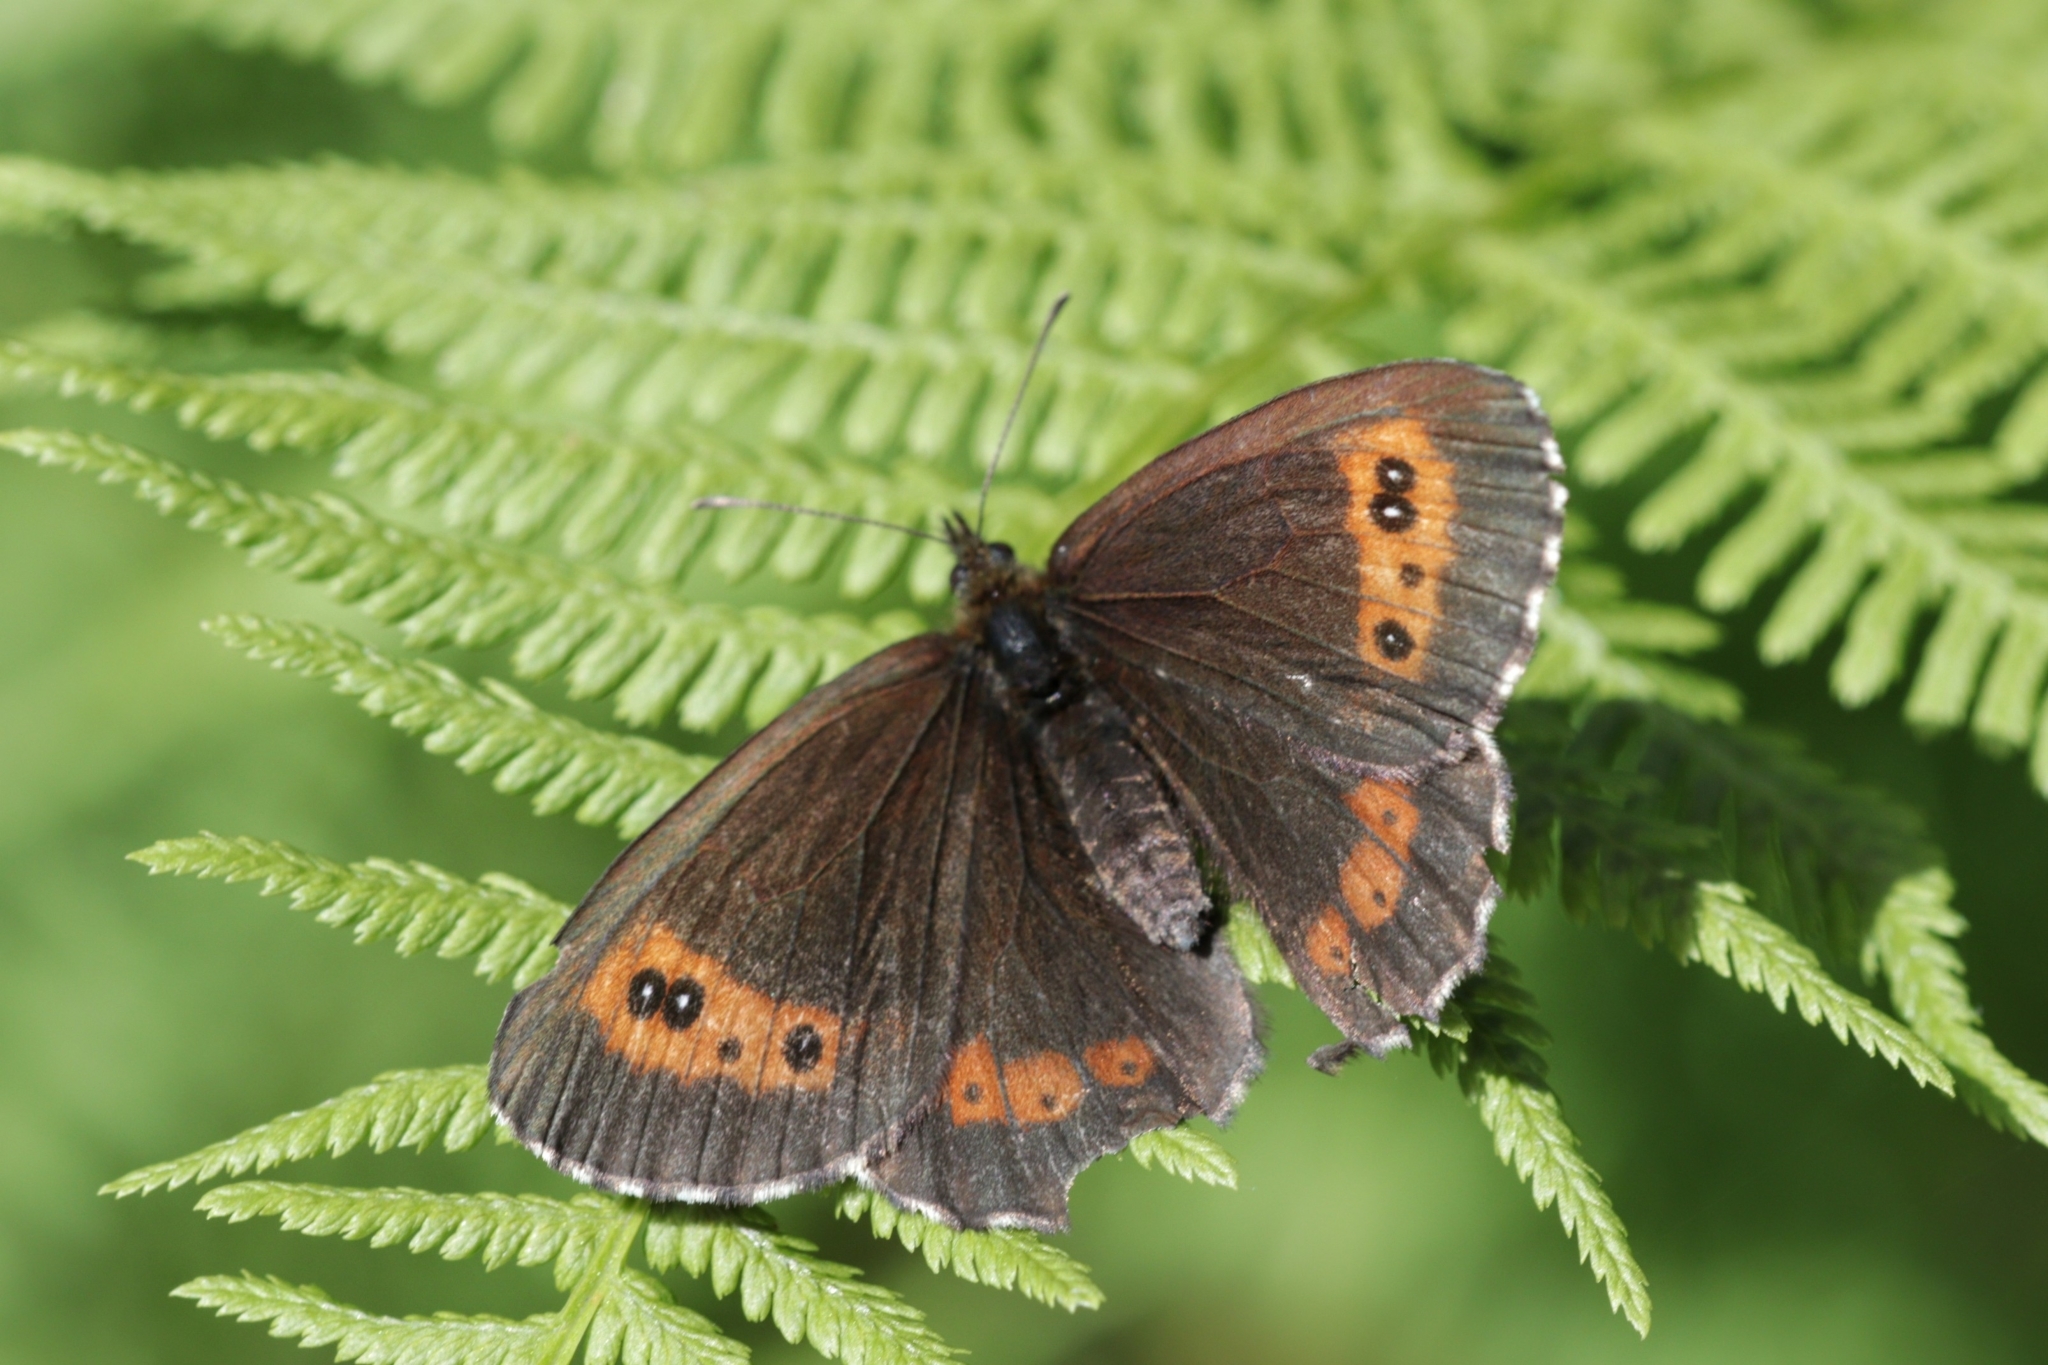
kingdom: Animalia
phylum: Arthropoda
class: Insecta
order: Lepidoptera
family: Nymphalidae
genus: Erebia
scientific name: Erebia ligea
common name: Arran brown
